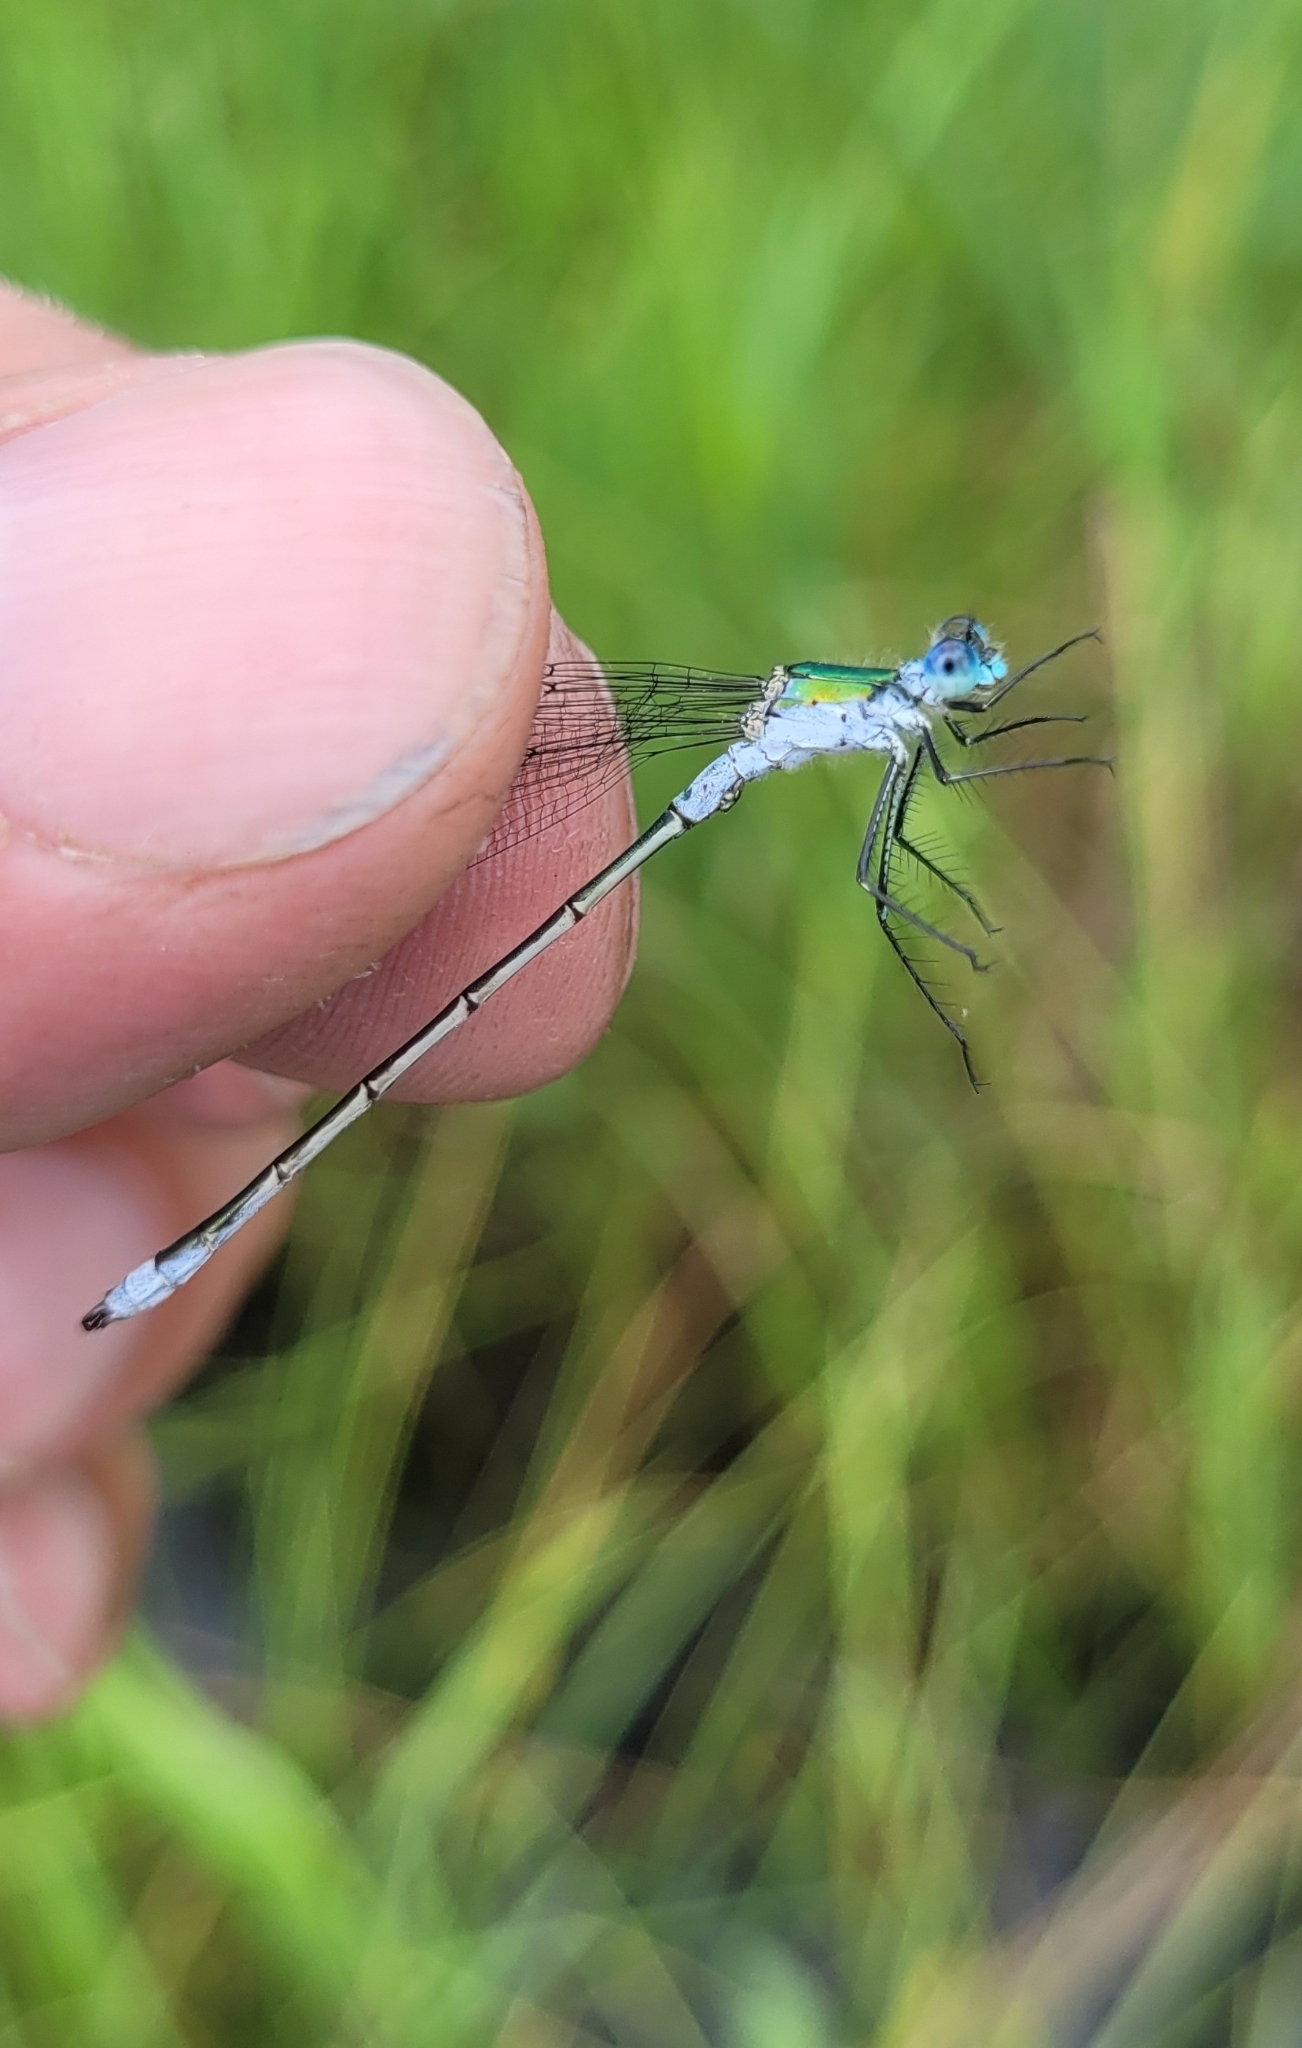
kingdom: Animalia
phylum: Arthropoda
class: Insecta
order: Odonata
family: Lestidae
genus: Lestes
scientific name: Lestes sponsa
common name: Common spreadwing
